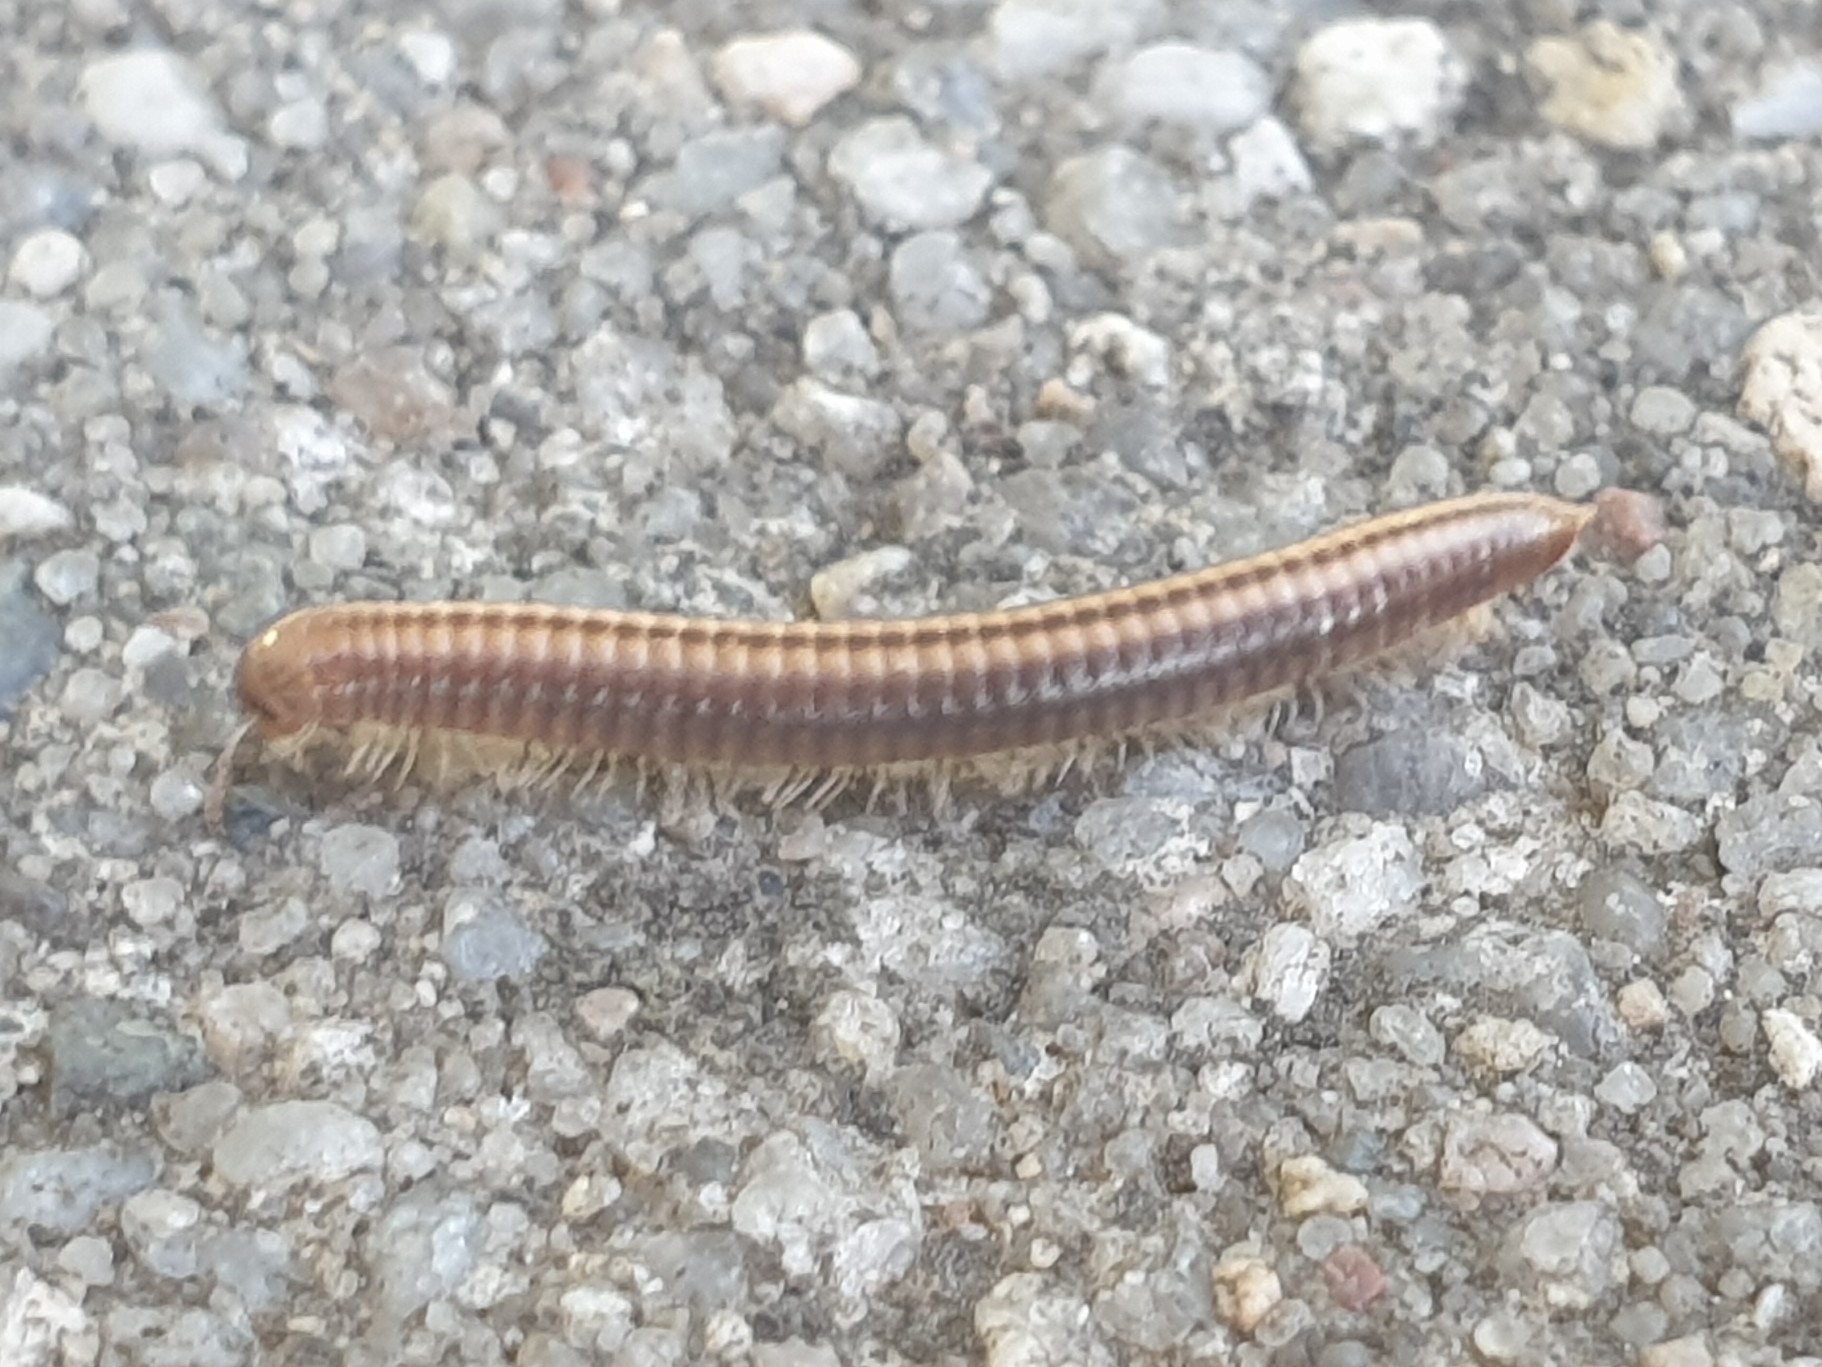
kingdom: Animalia
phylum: Arthropoda
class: Diplopoda
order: Julida
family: Julidae
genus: Ommatoiulus
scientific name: Ommatoiulus sabulosus
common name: Striped millipede
